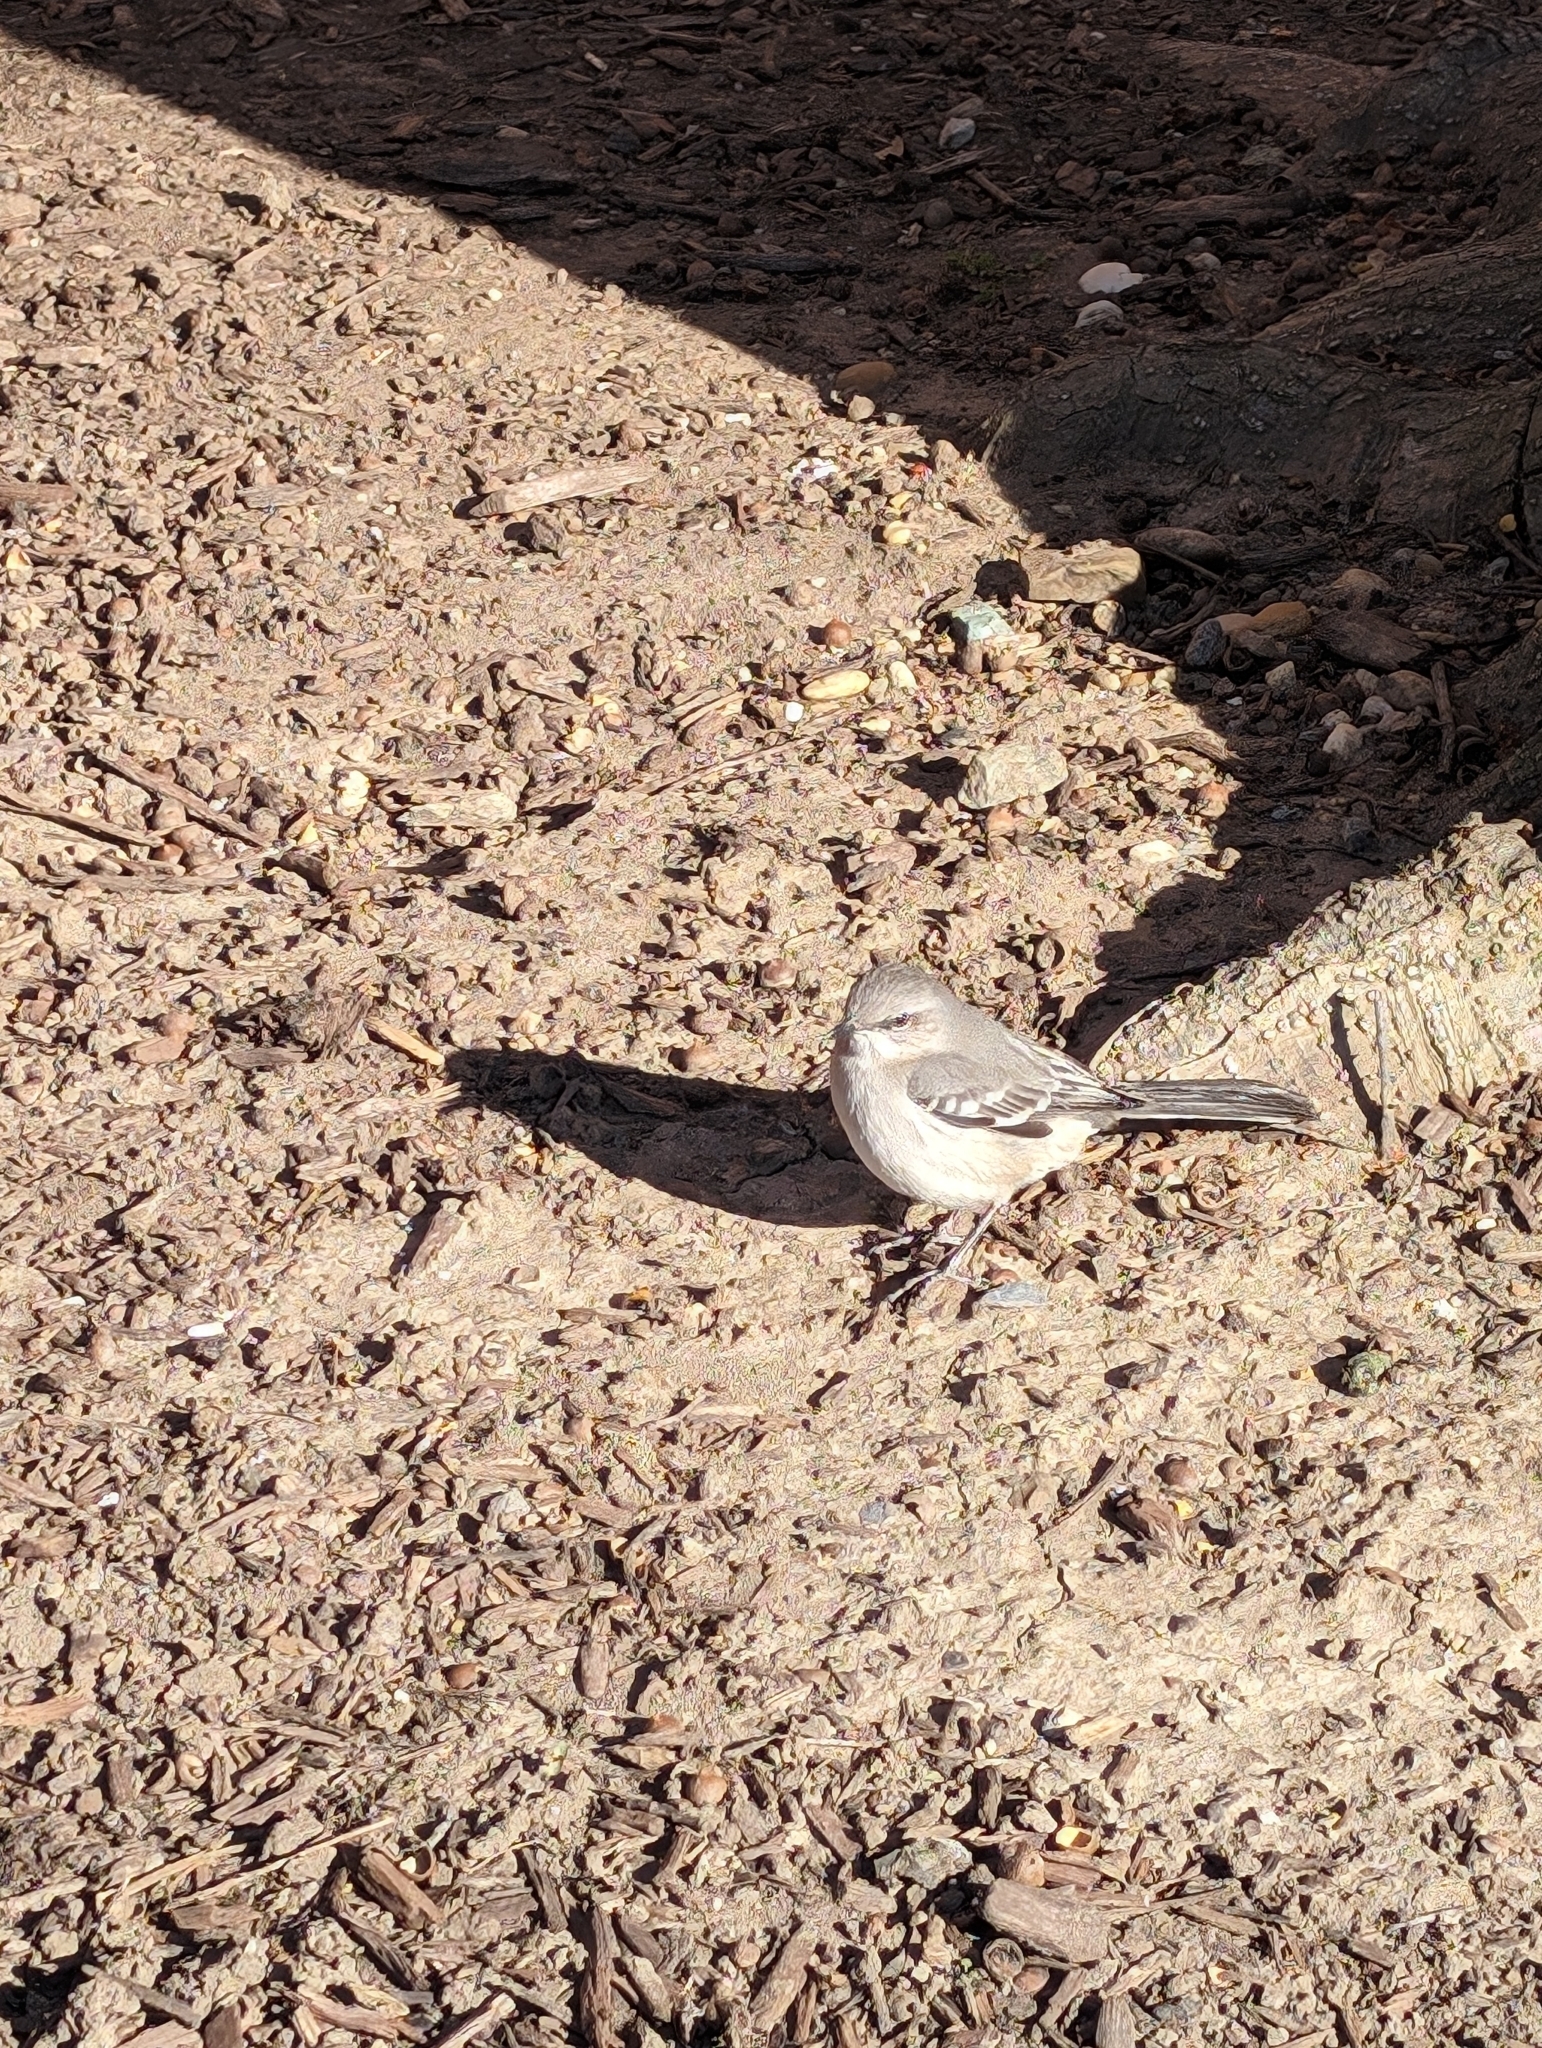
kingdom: Animalia
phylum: Chordata
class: Aves
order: Passeriformes
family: Mimidae
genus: Mimus
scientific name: Mimus polyglottos
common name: Northern mockingbird
